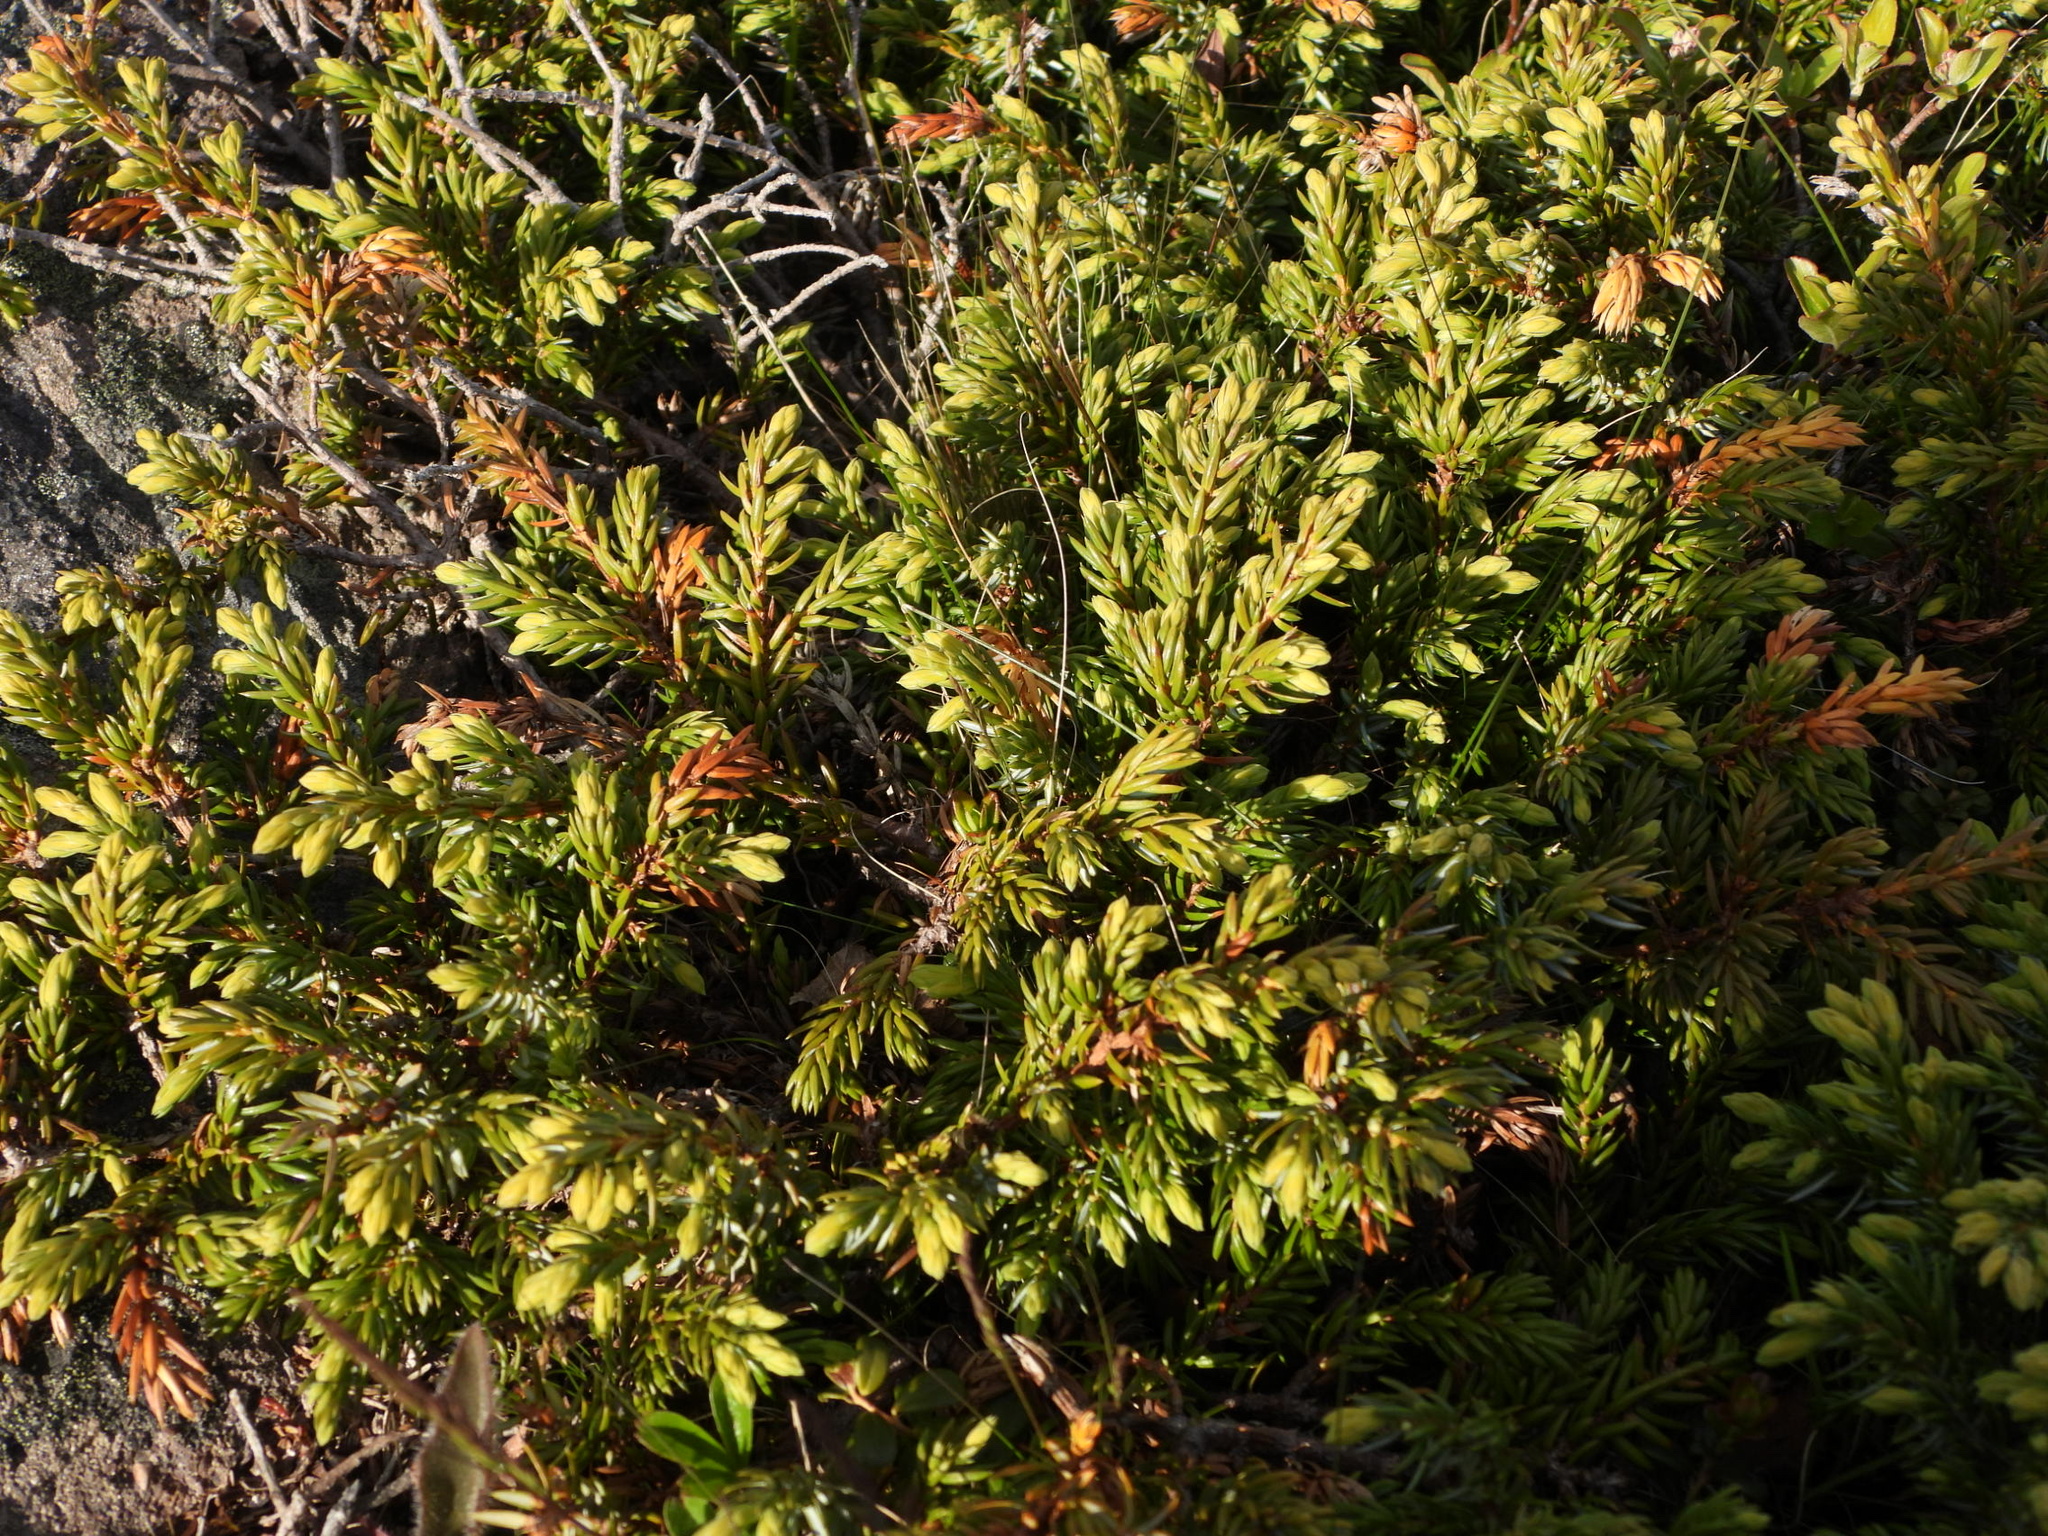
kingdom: Plantae
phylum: Tracheophyta
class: Pinopsida
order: Pinales
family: Cupressaceae
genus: Juniperus
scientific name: Juniperus communis
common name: Common juniper
